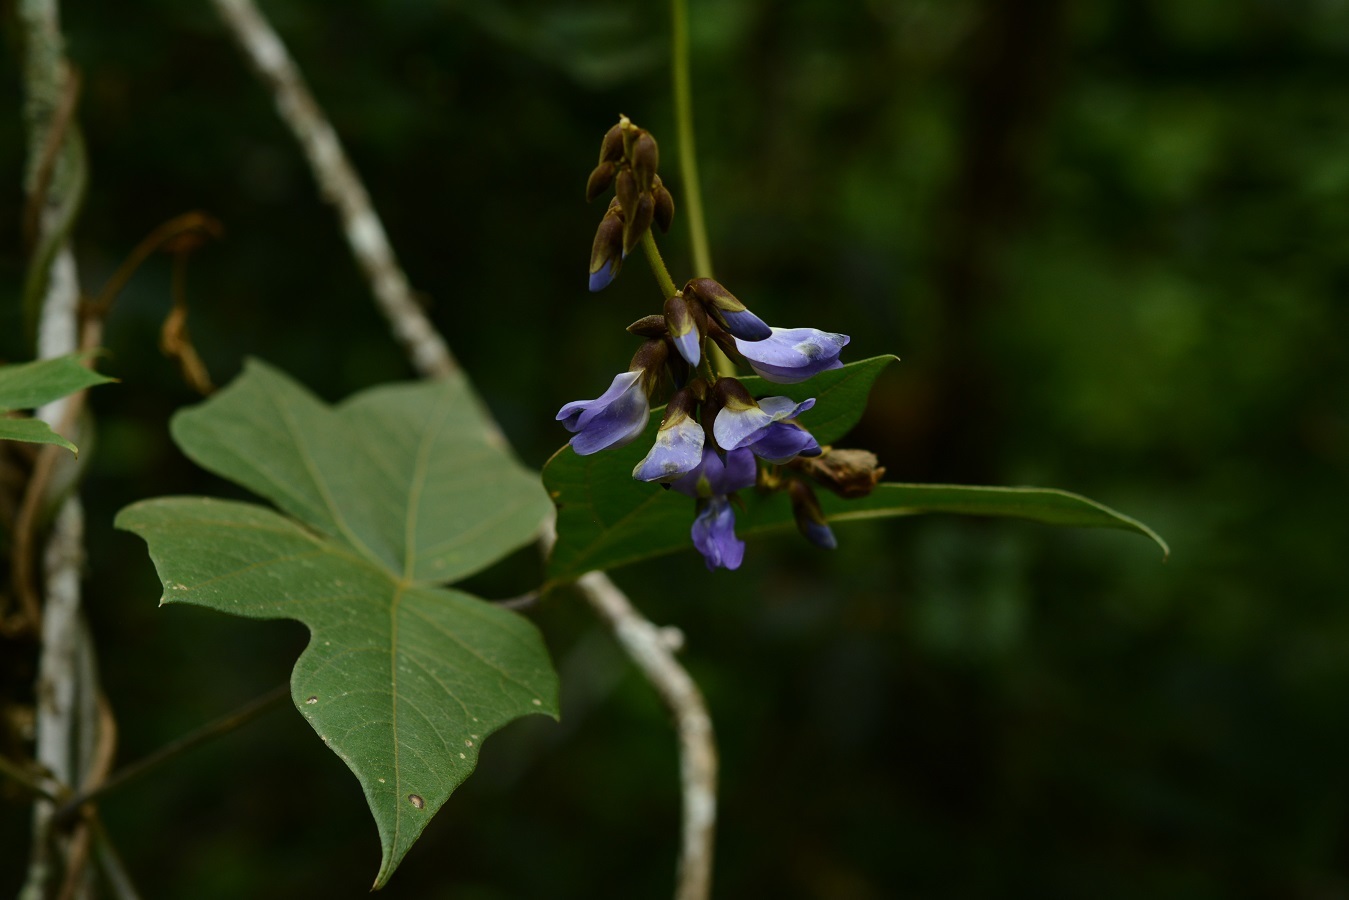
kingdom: Plantae
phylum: Tracheophyta
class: Magnoliopsida
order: Fabales
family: Fabaceae
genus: Pachyrhizus
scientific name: Pachyrhizus erosus
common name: Yam bean
